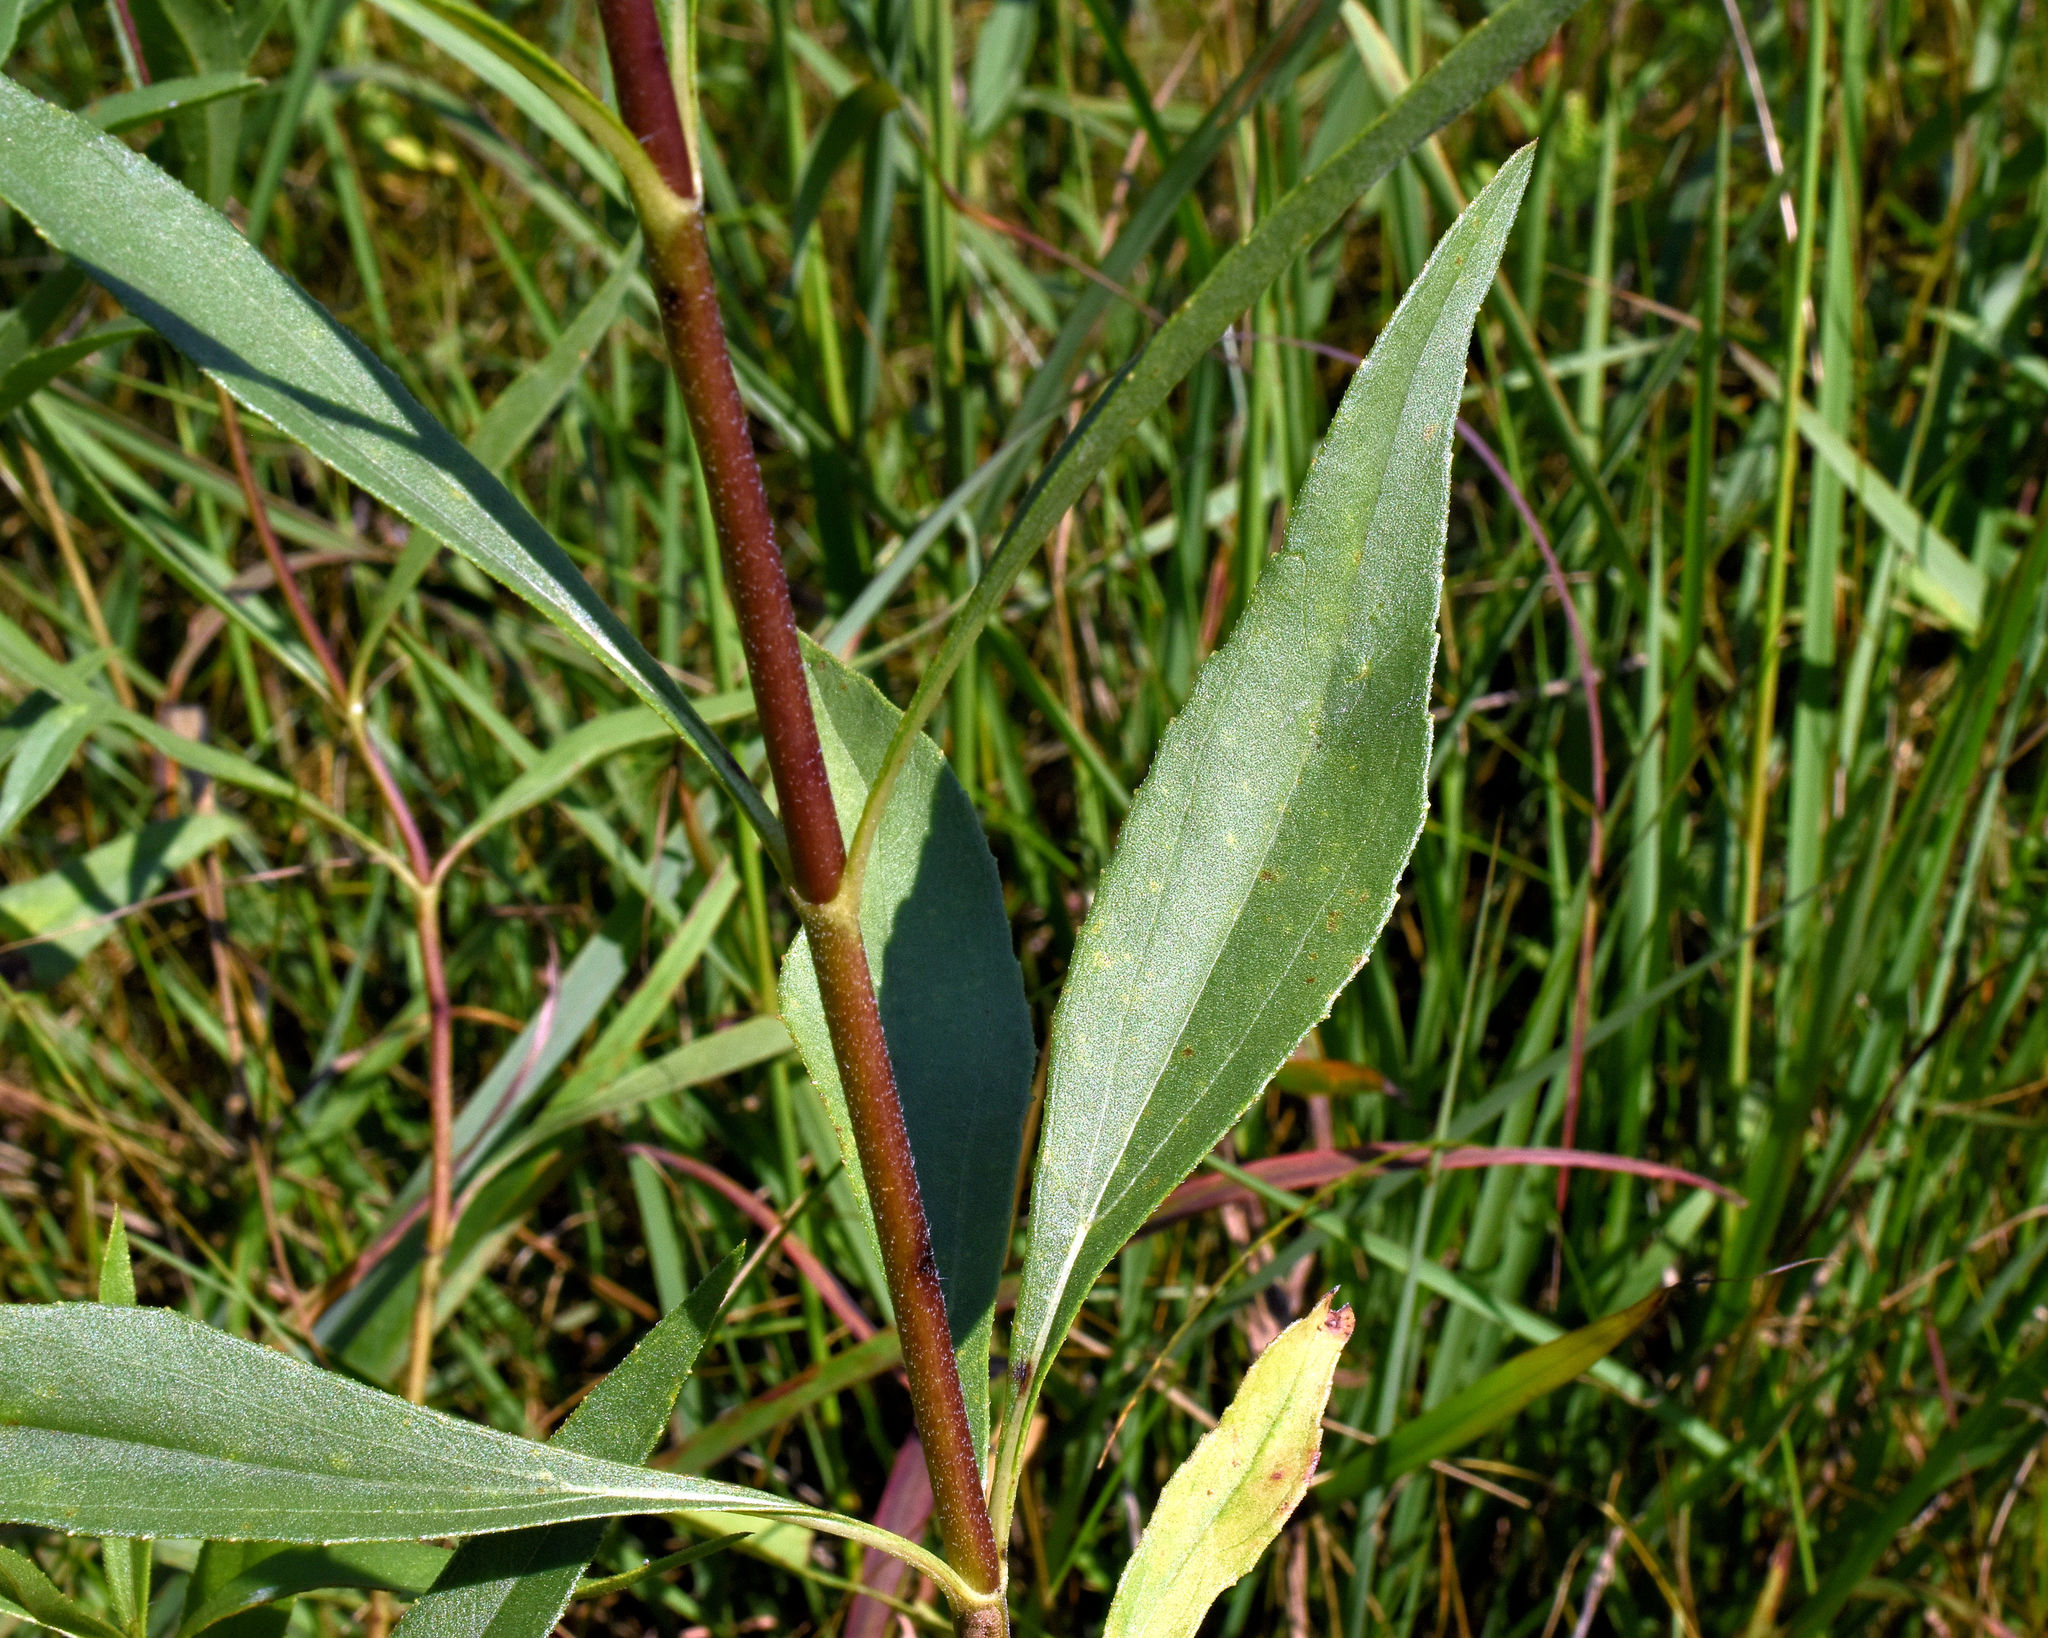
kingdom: Plantae
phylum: Tracheophyta
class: Magnoliopsida
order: Asterales
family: Asteraceae
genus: Helianthus
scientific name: Helianthus pauciflorus
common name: Stiff sunflower
